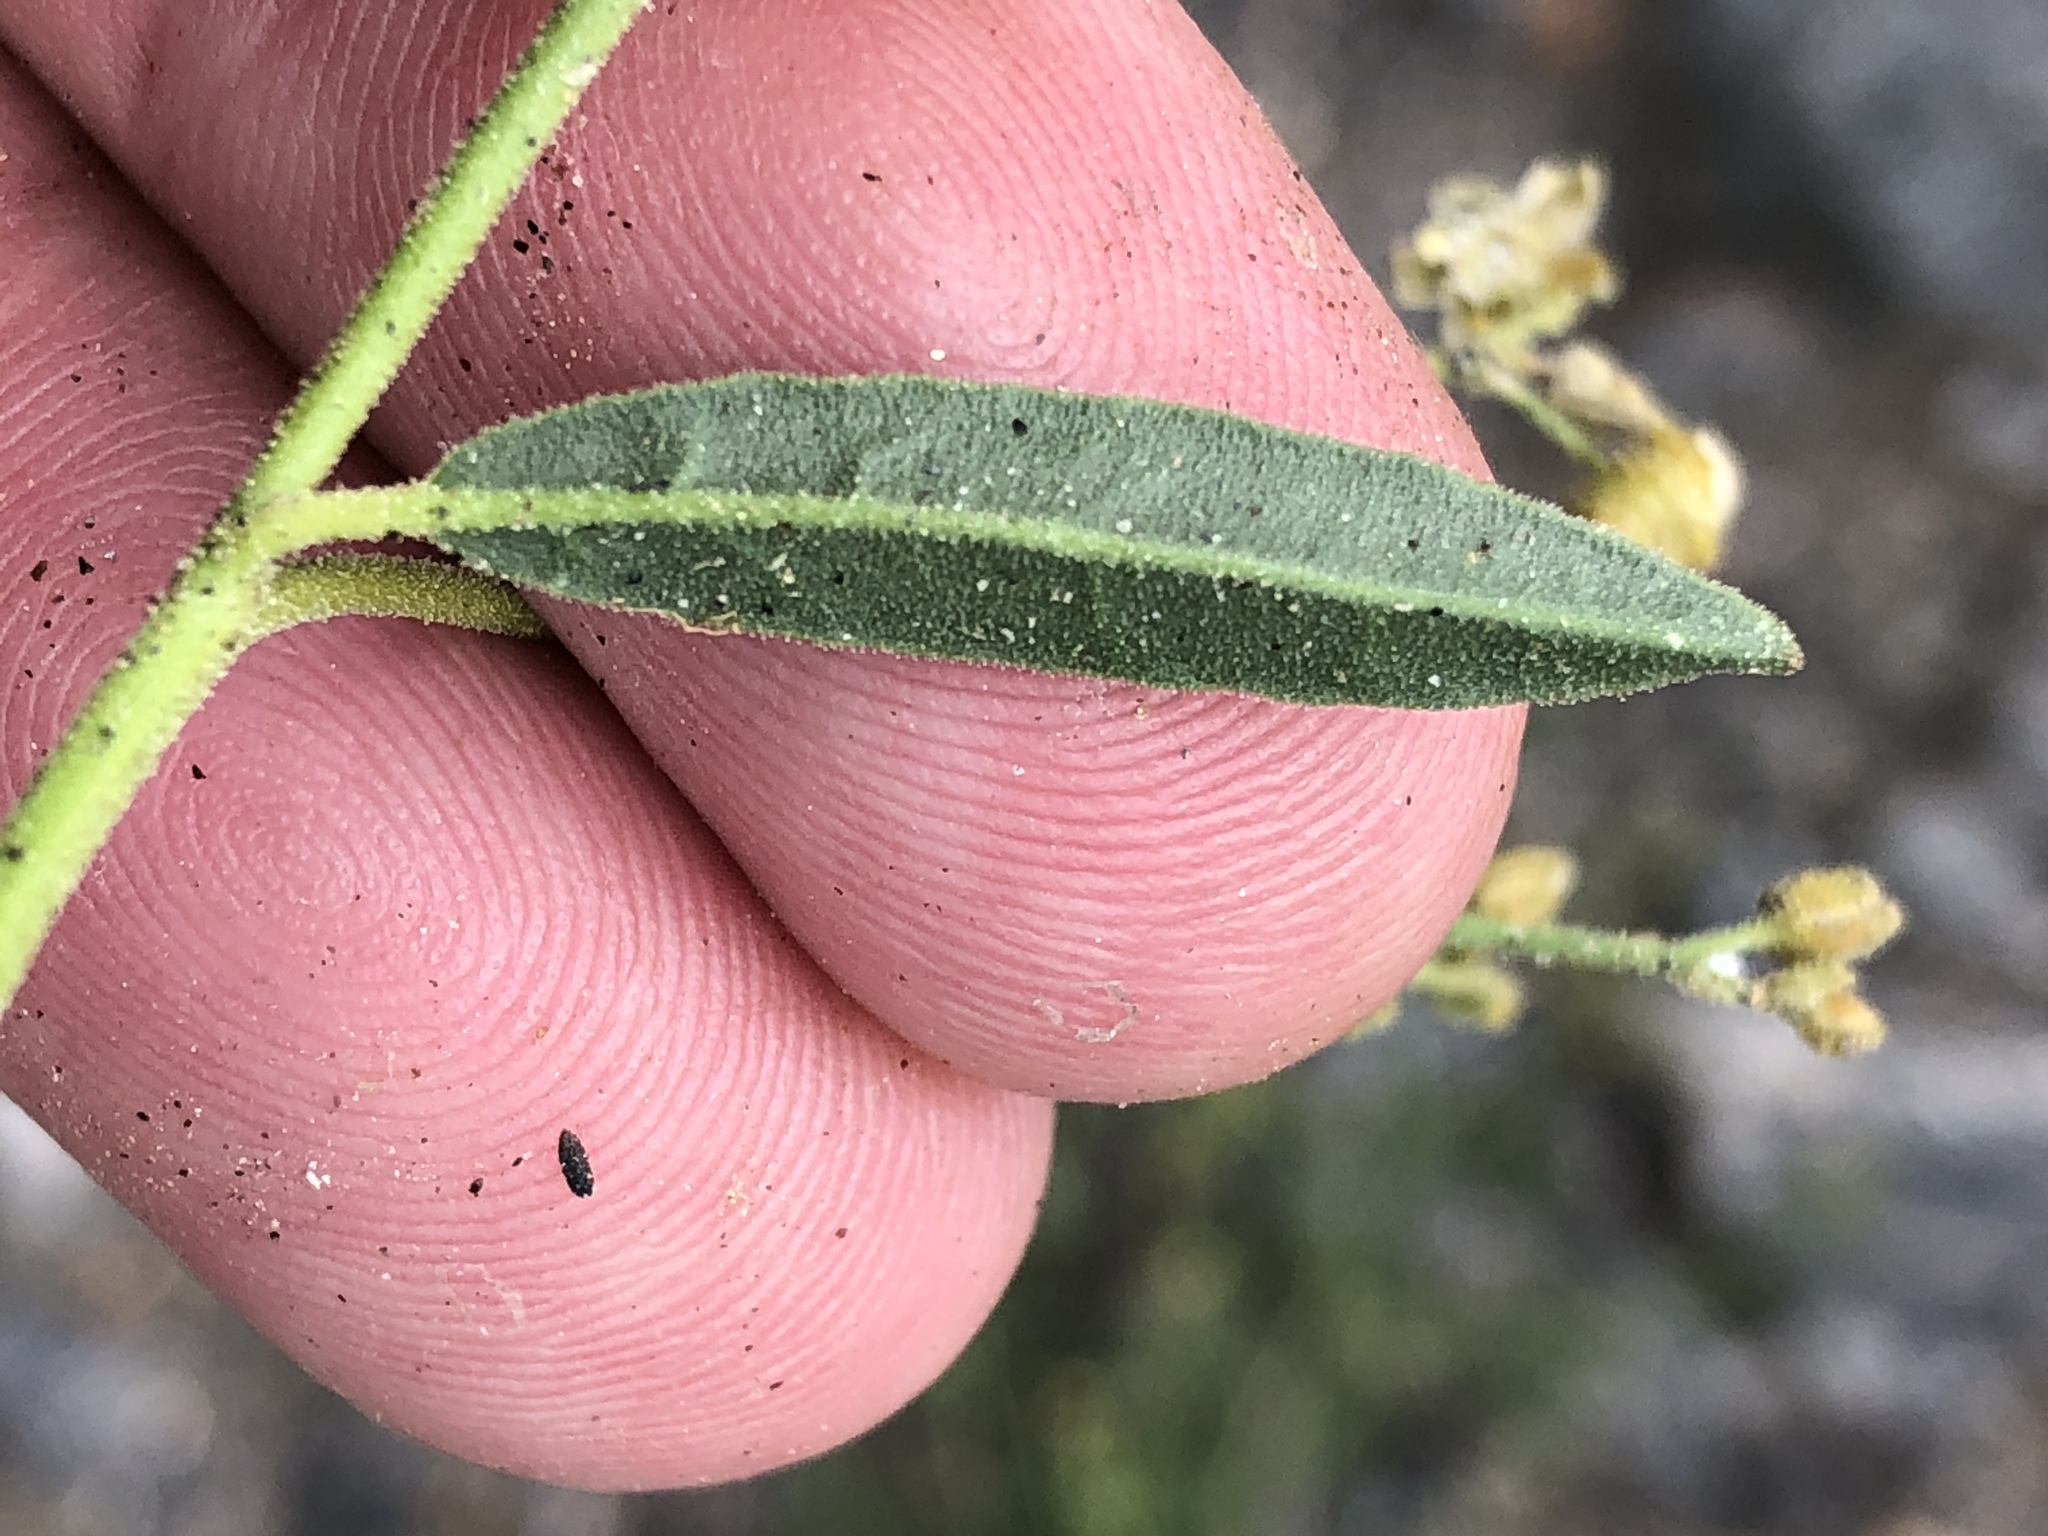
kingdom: Plantae
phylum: Tracheophyta
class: Magnoliopsida
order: Caryophyllales
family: Limeaceae
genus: Limeum
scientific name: Limeum dinteri
